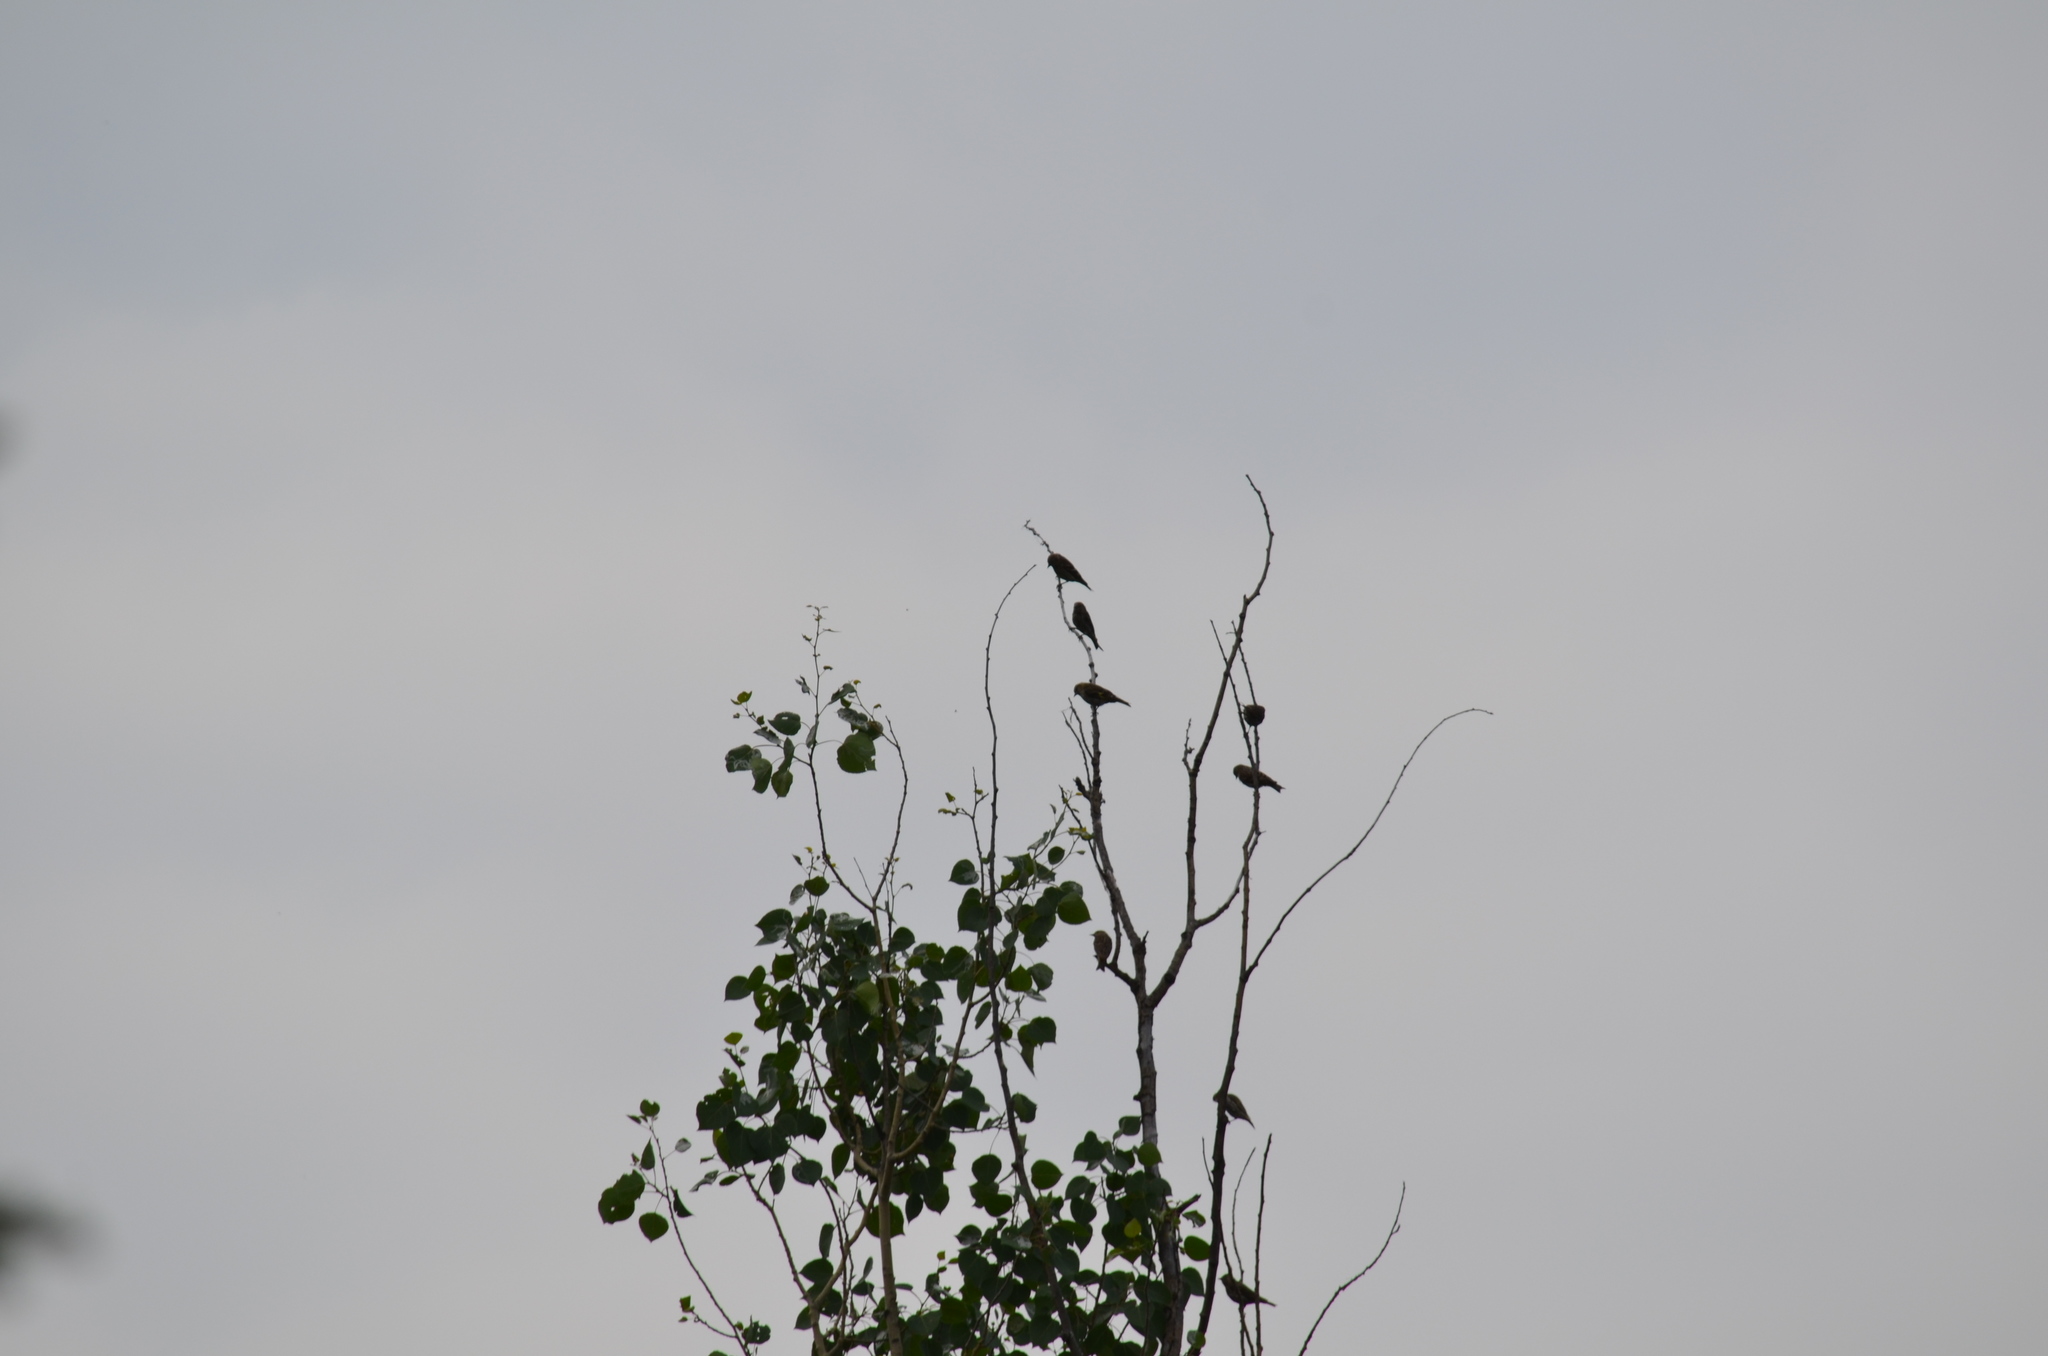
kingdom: Animalia
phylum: Chordata
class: Aves
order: Passeriformes
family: Fringillidae
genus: Spinus
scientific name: Spinus pinus
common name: Pine siskin
